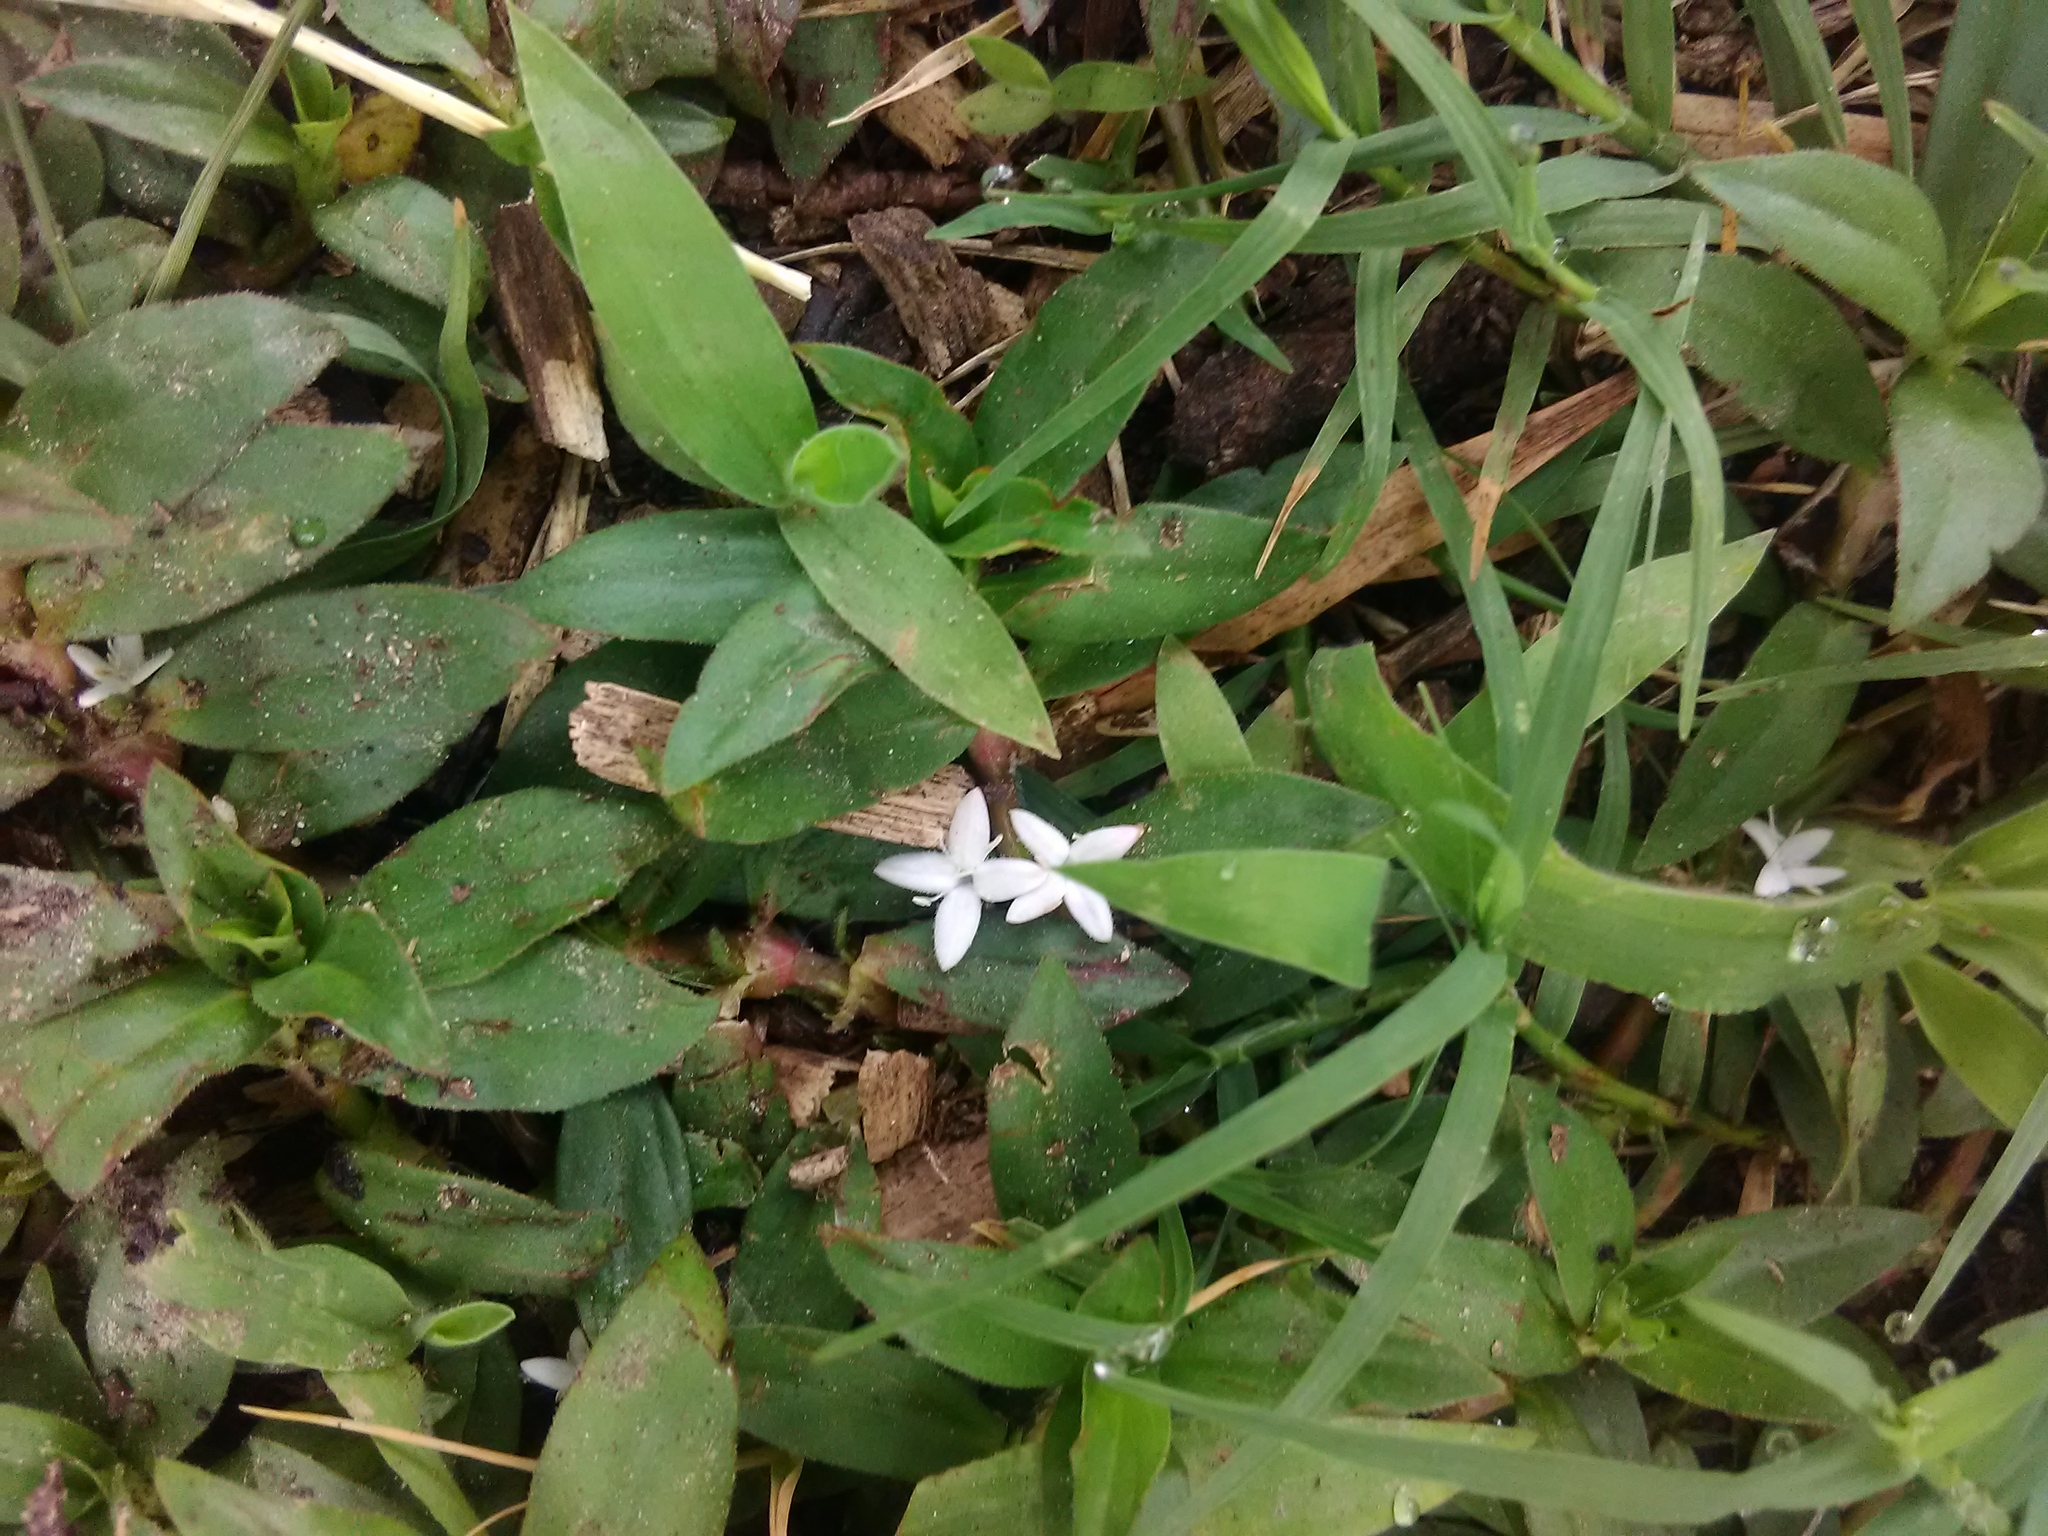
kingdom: Plantae
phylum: Tracheophyta
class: Magnoliopsida
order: Gentianales
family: Rubiaceae
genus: Diodia
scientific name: Diodia virginiana
